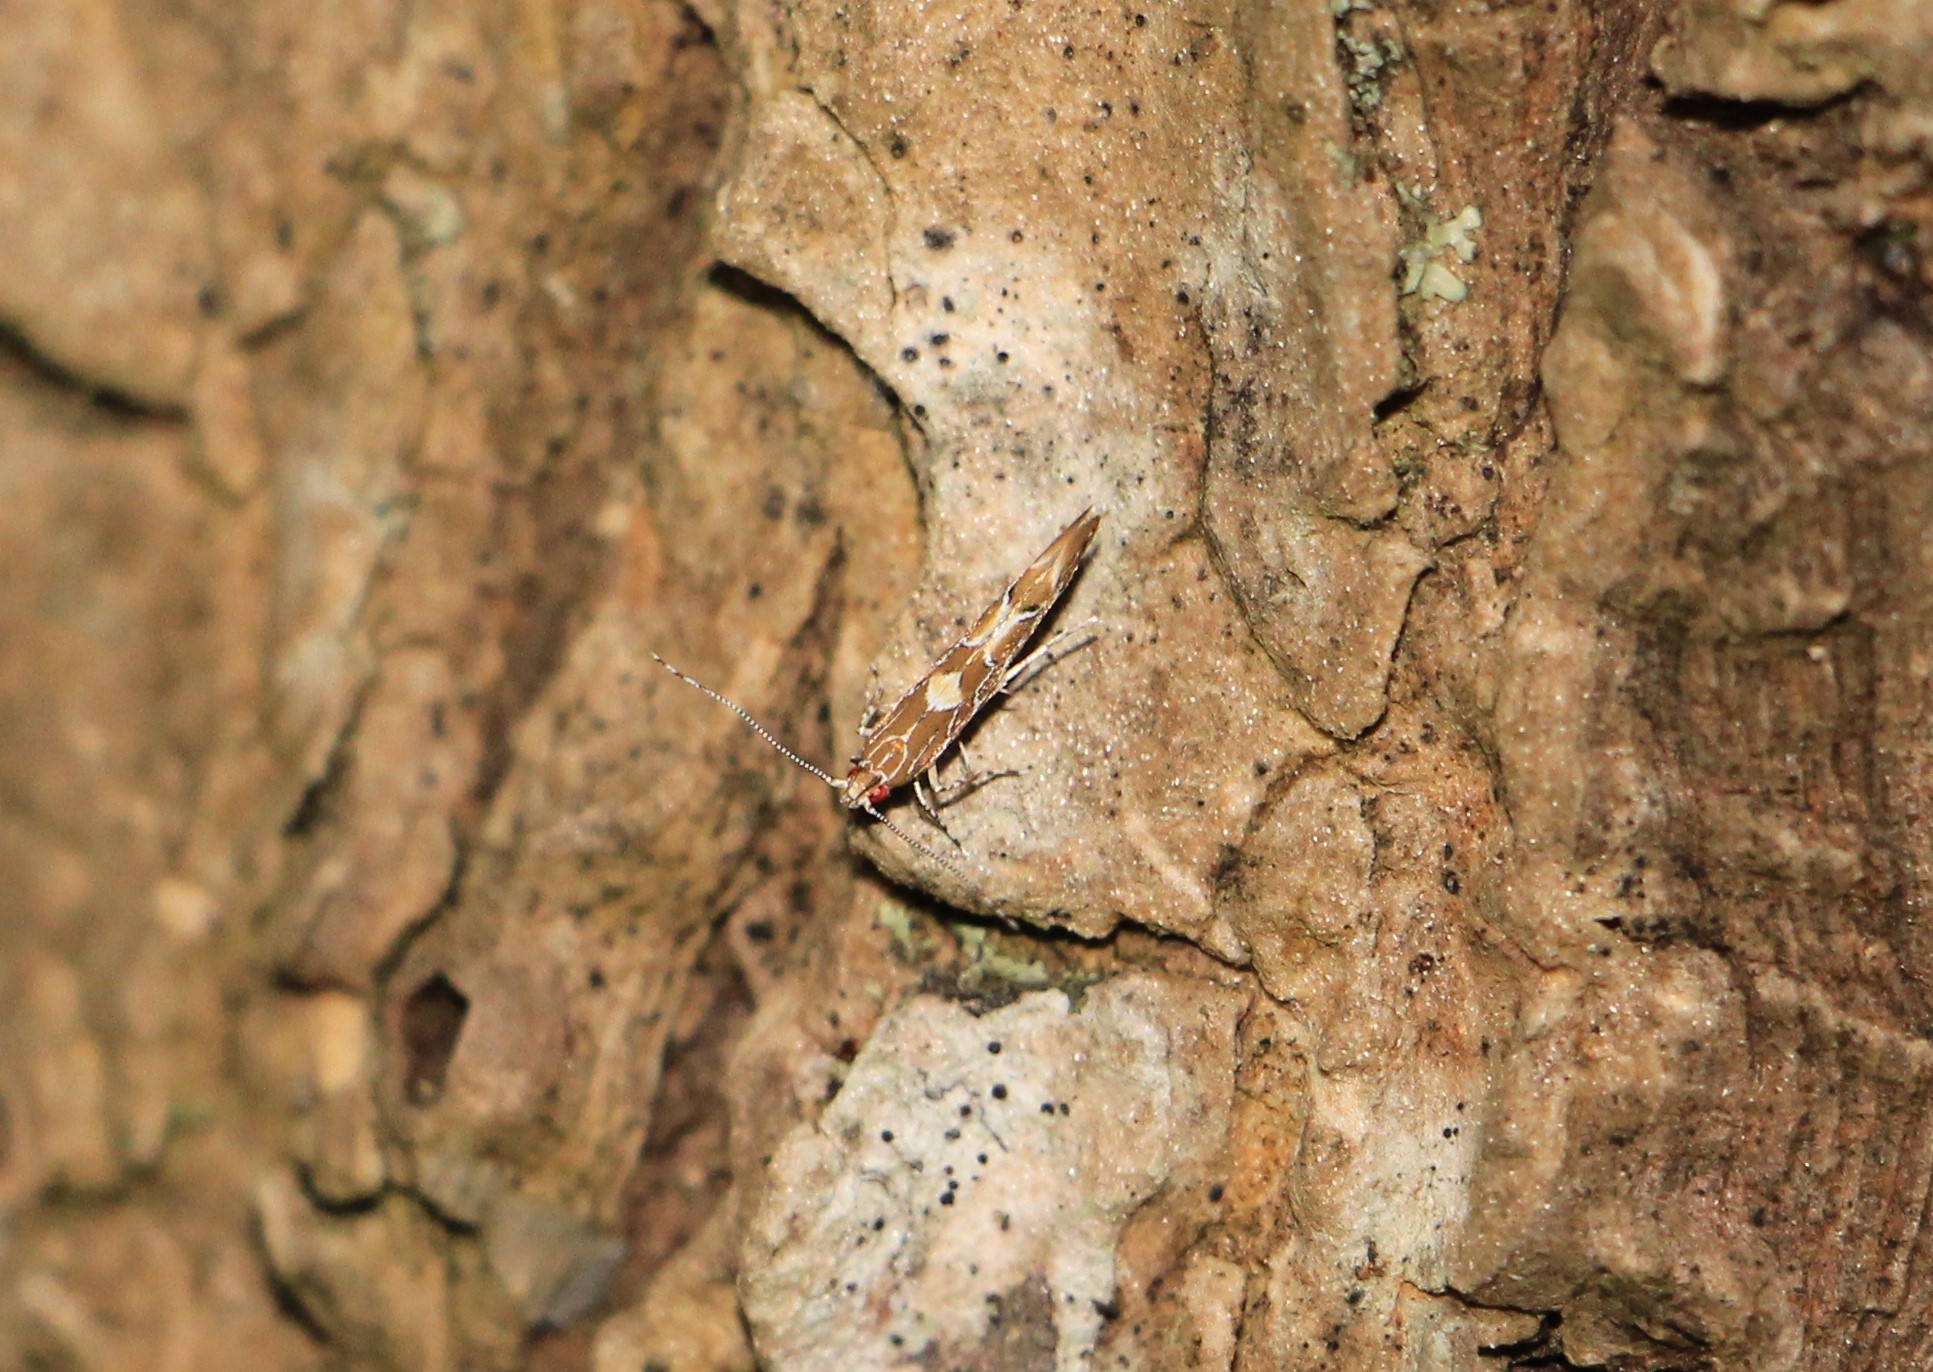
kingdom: Animalia
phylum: Arthropoda
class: Insecta
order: Lepidoptera
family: Cosmopterigidae
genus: Pyroderces
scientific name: Pyroderces apparitella
